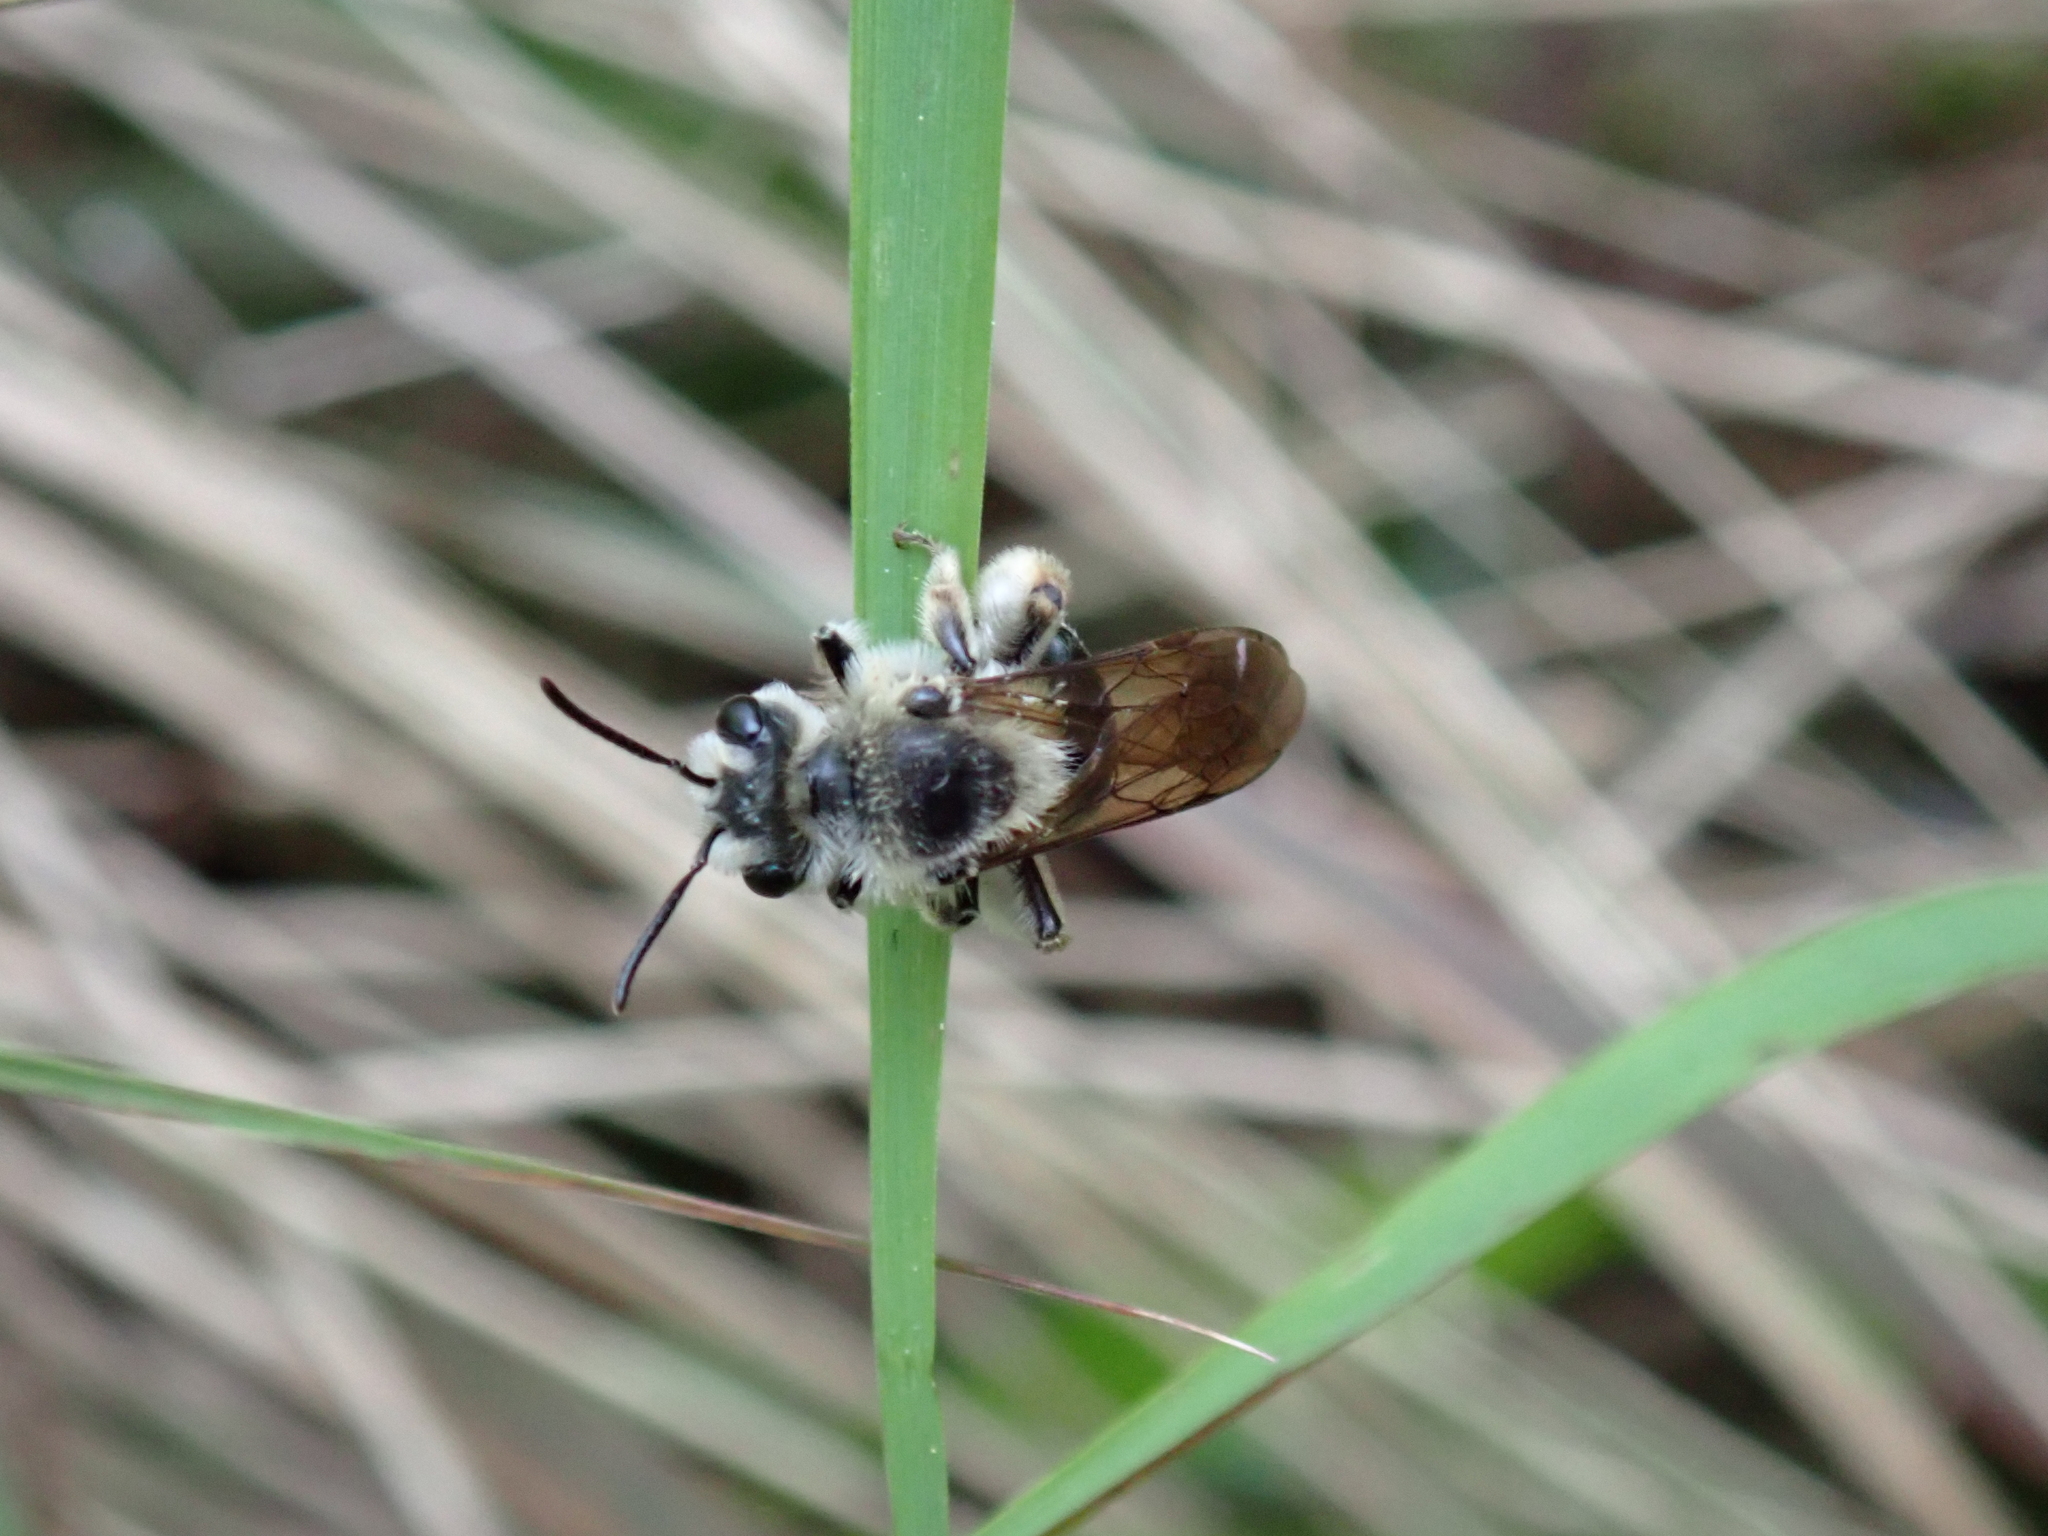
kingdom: Animalia
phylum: Arthropoda
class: Insecta
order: Hymenoptera
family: Andrenidae
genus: Andrena
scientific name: Andrena barbara
